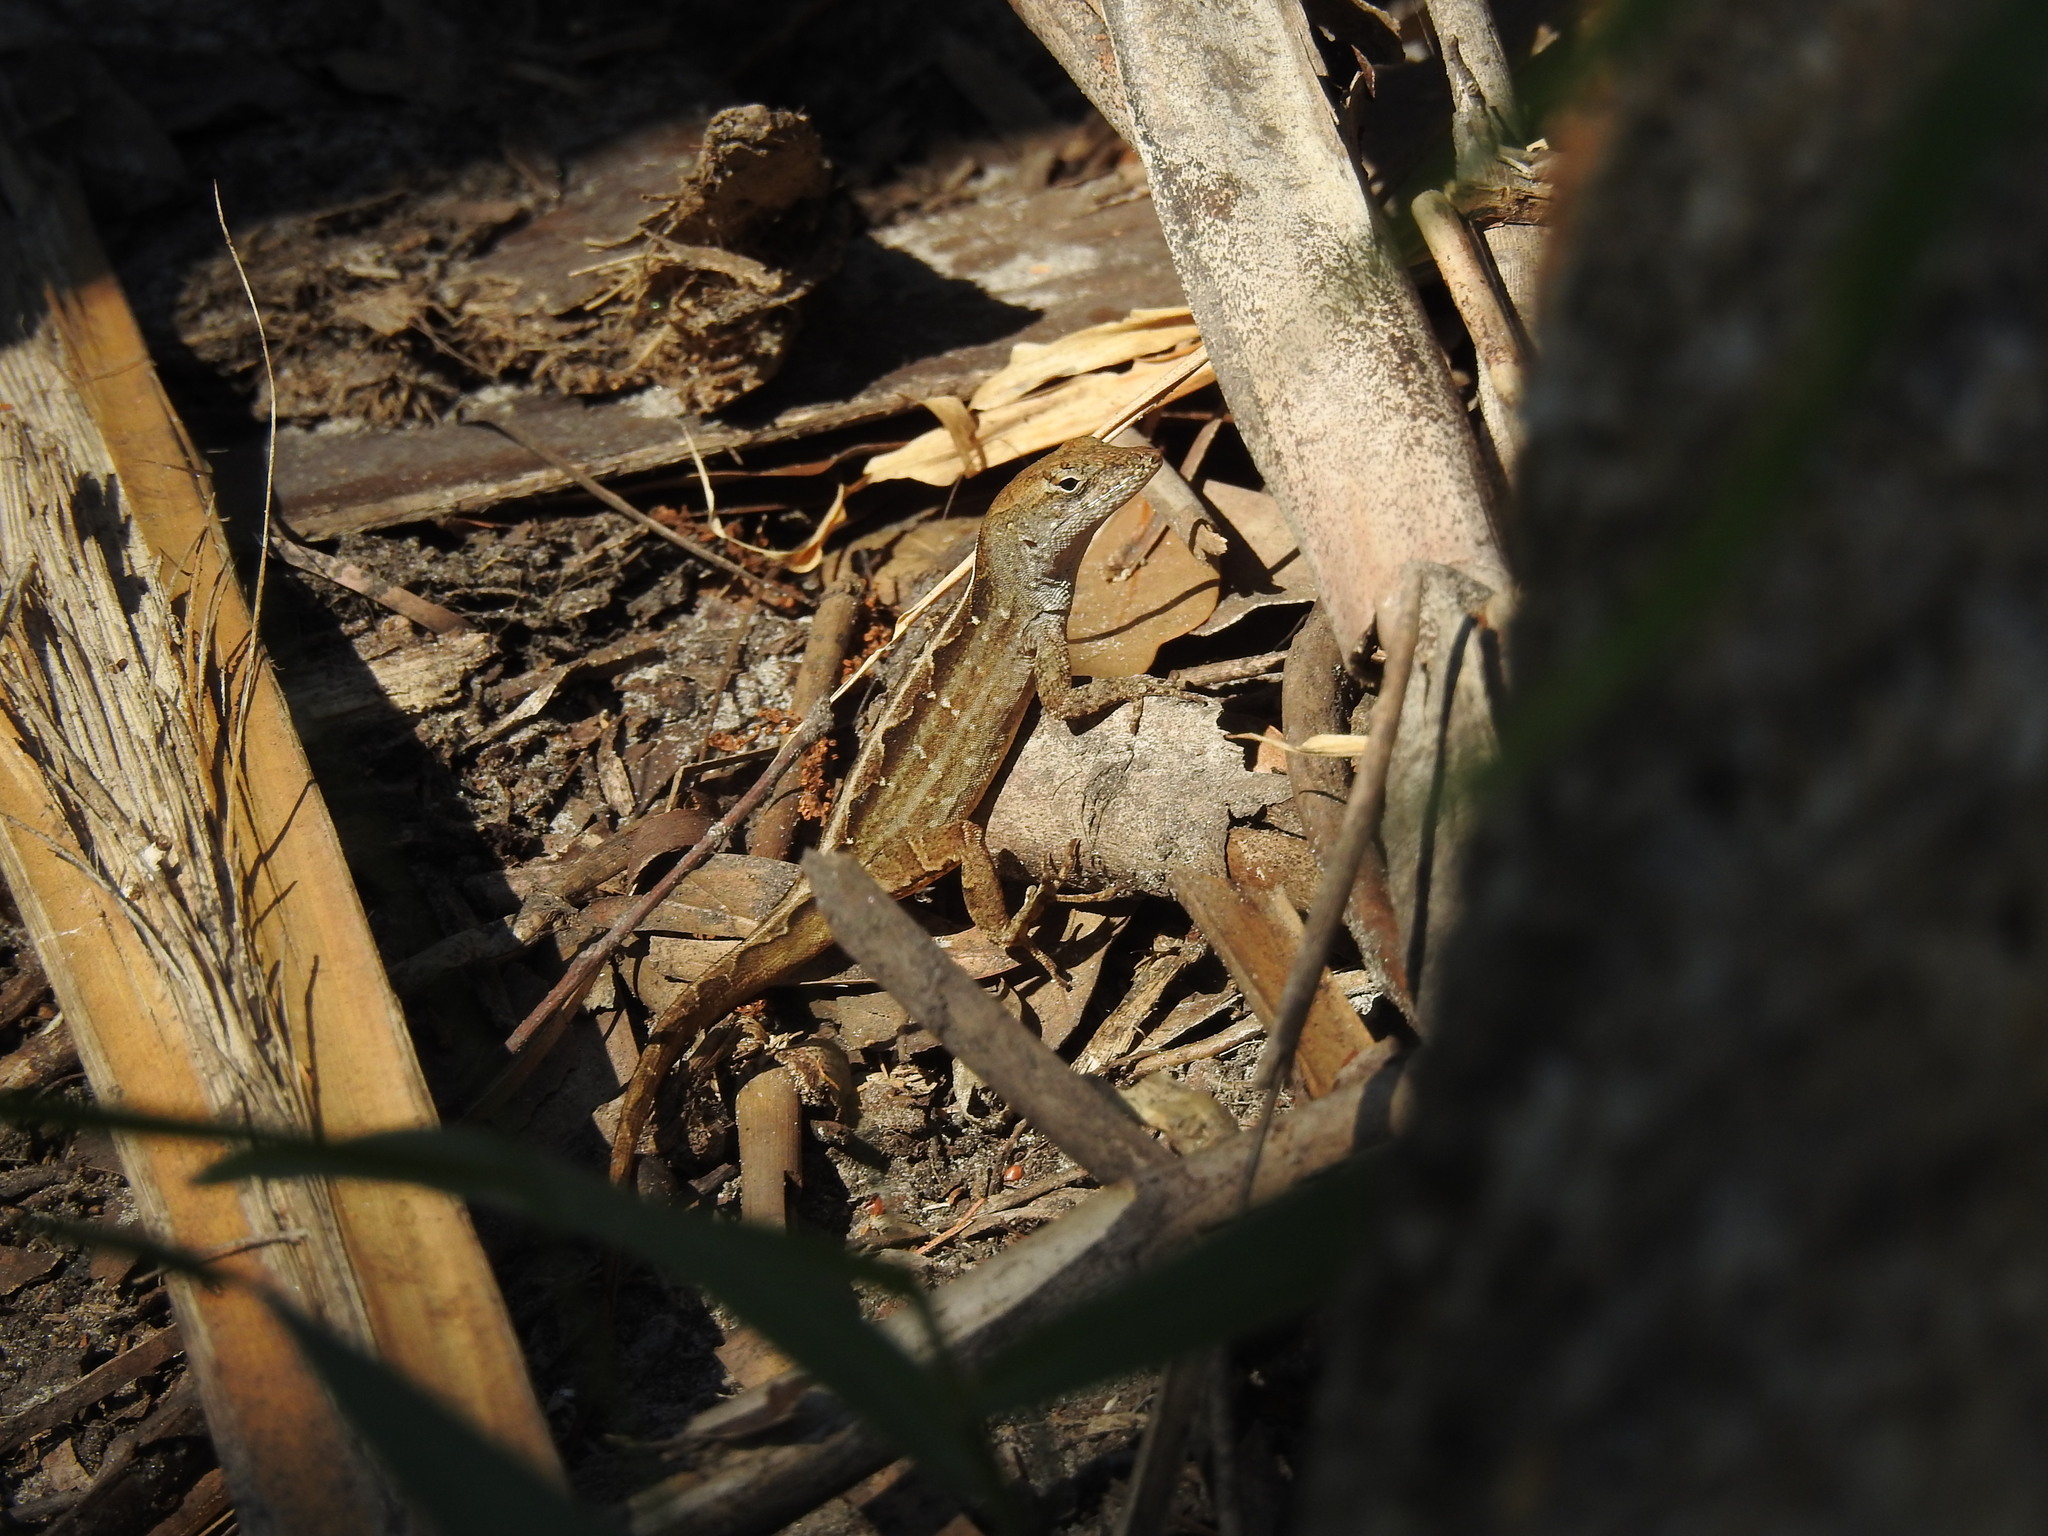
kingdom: Animalia
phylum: Chordata
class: Squamata
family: Dactyloidae
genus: Anolis
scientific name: Anolis sagrei
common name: Brown anole
